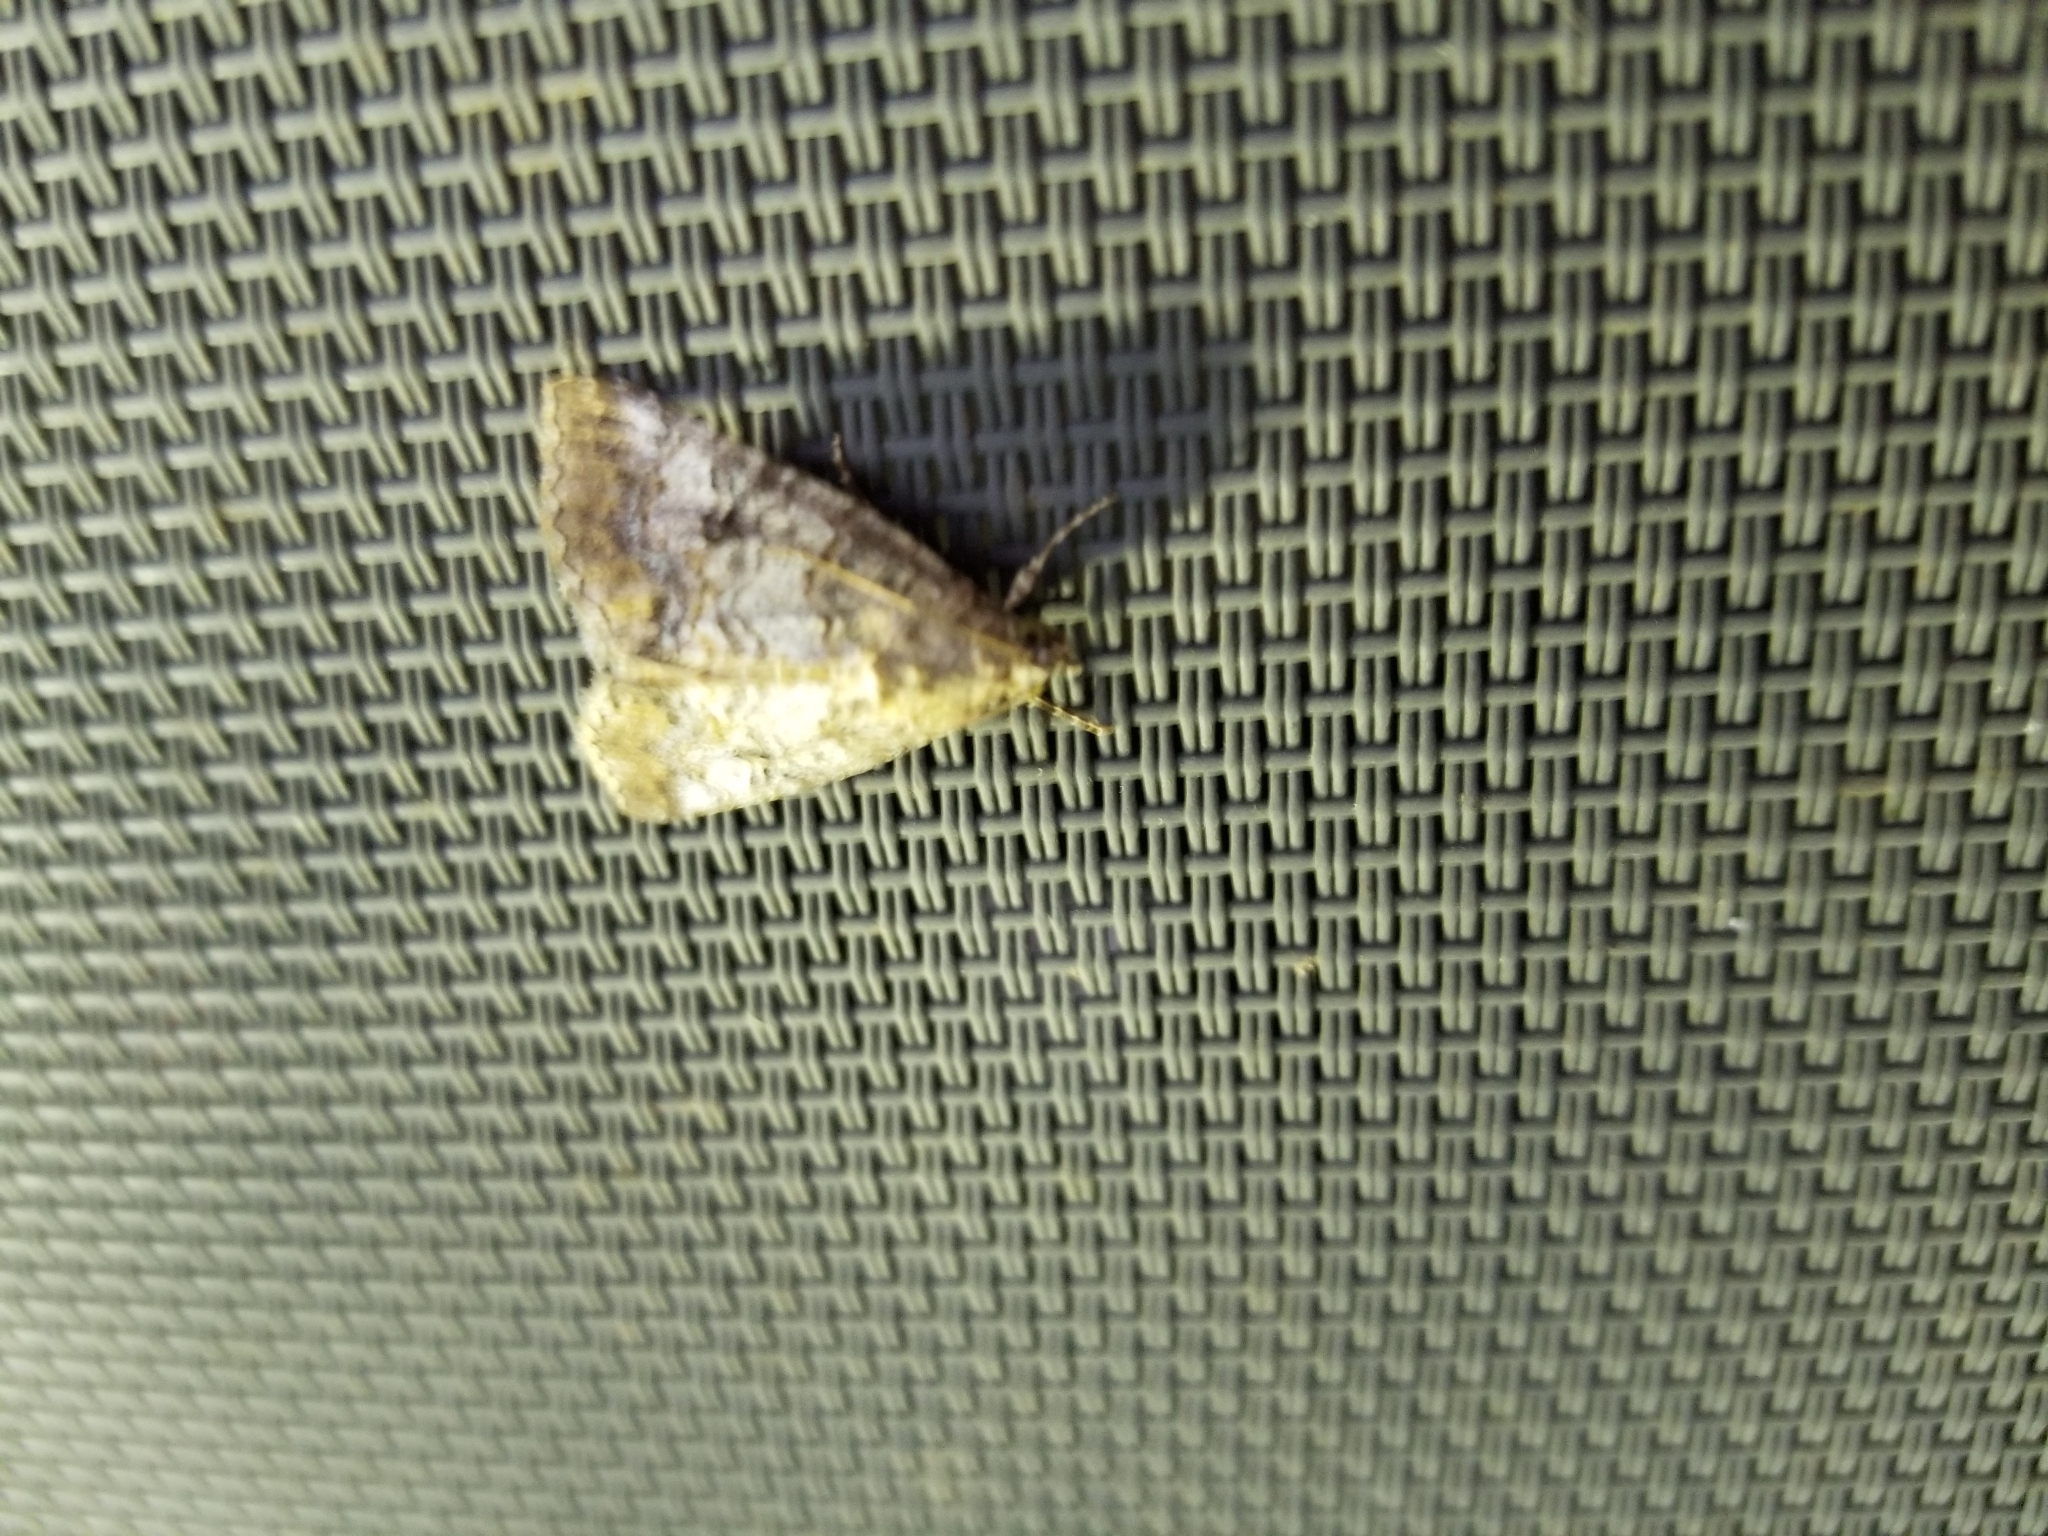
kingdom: Animalia
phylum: Arthropoda
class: Insecta
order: Lepidoptera
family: Erebidae
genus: Eubolina
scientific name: Eubolina impartialis
